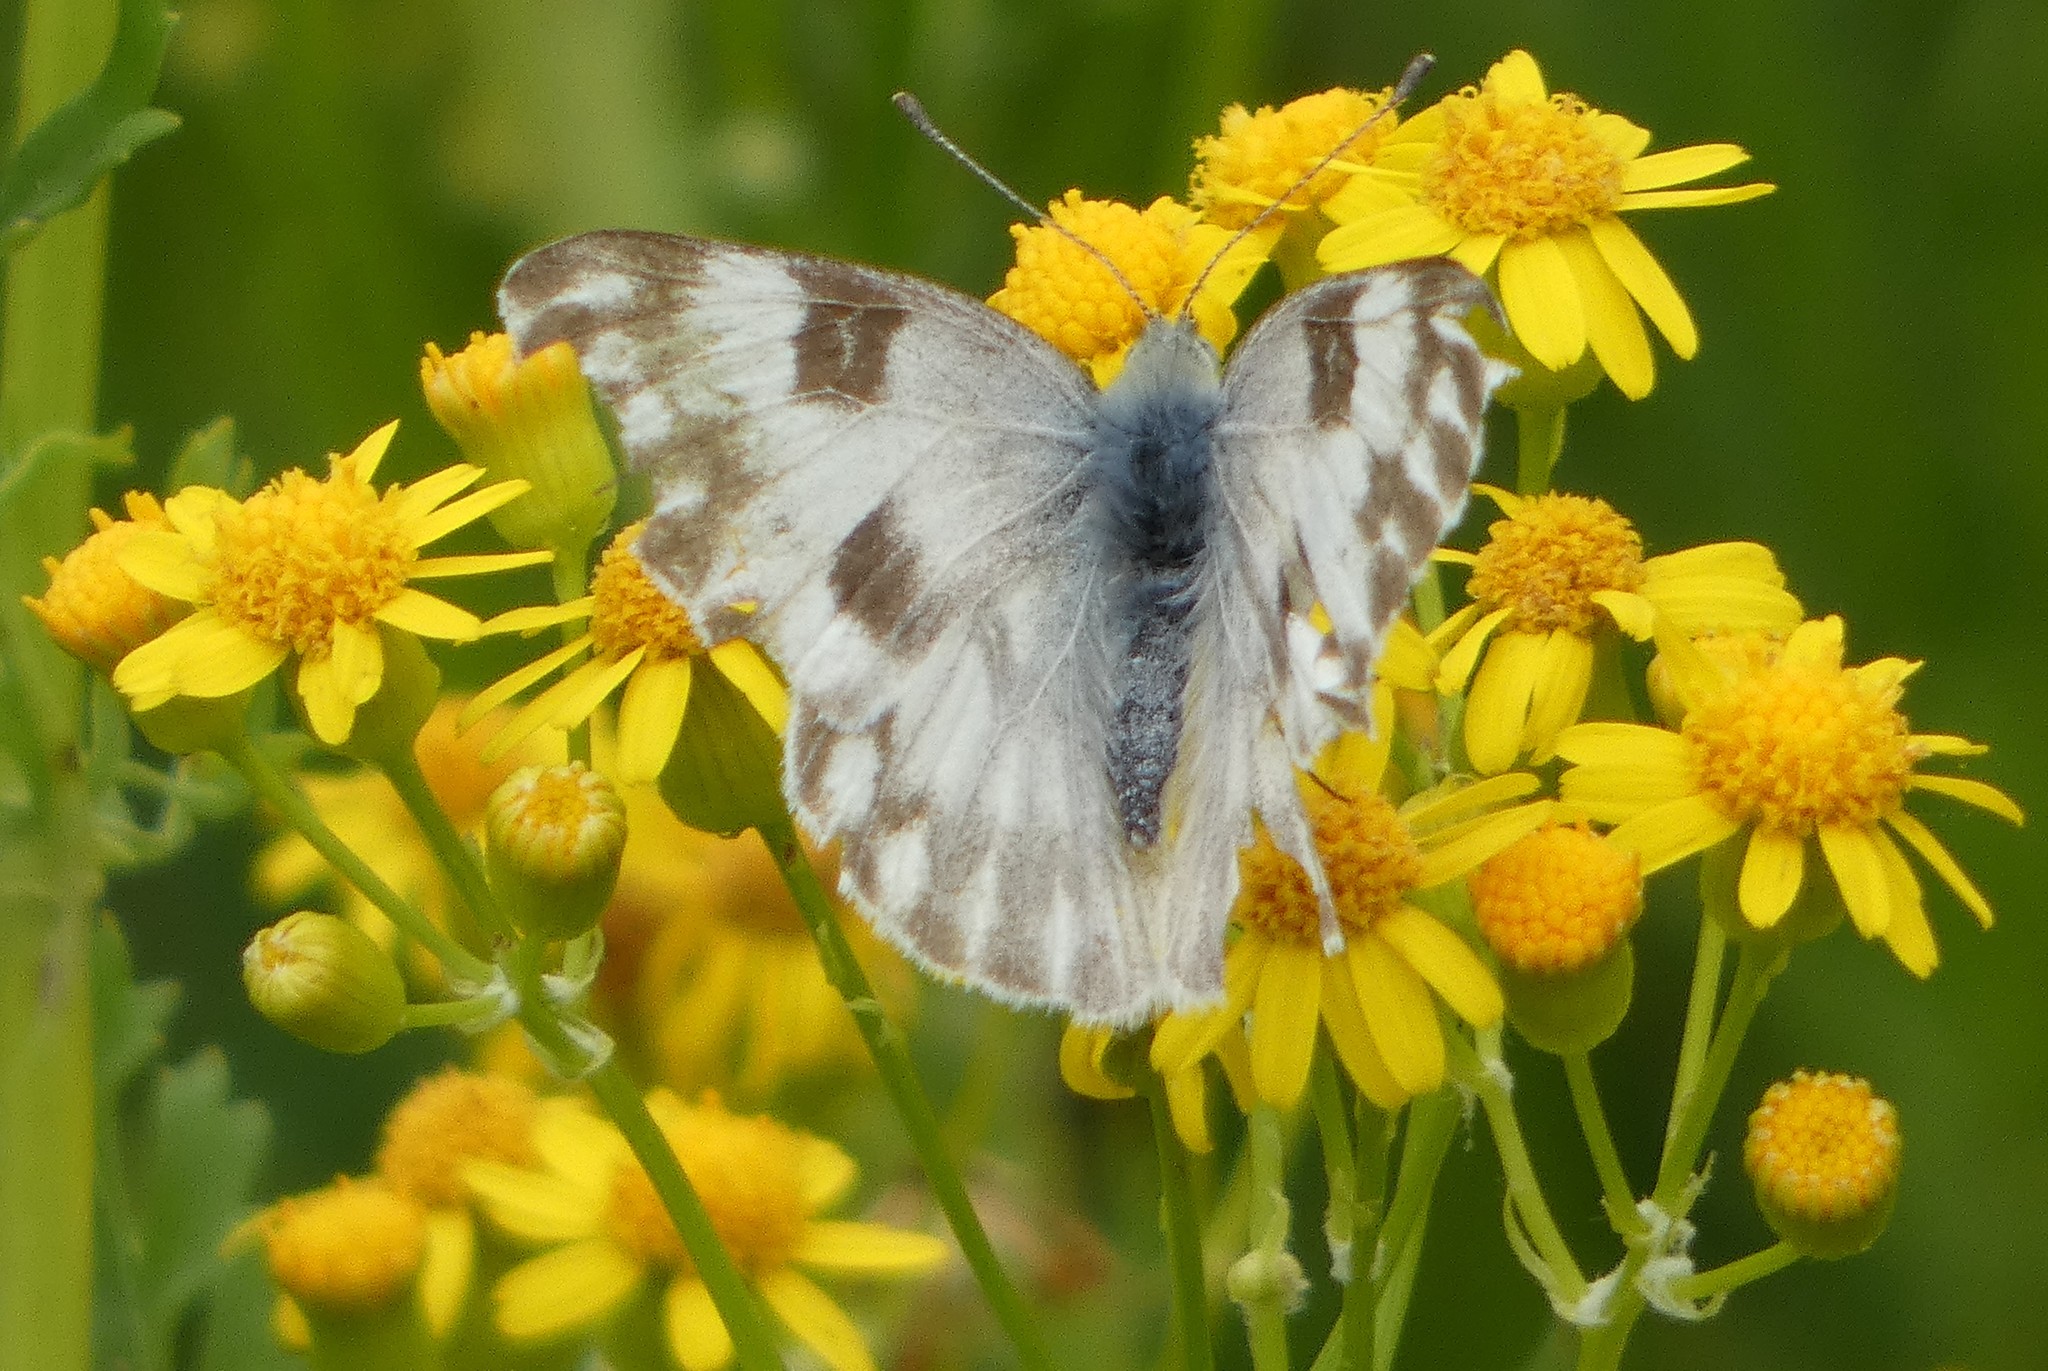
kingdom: Animalia
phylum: Arthropoda
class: Insecta
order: Lepidoptera
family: Pieridae
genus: Pontia
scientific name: Pontia protodice
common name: Checkered white
